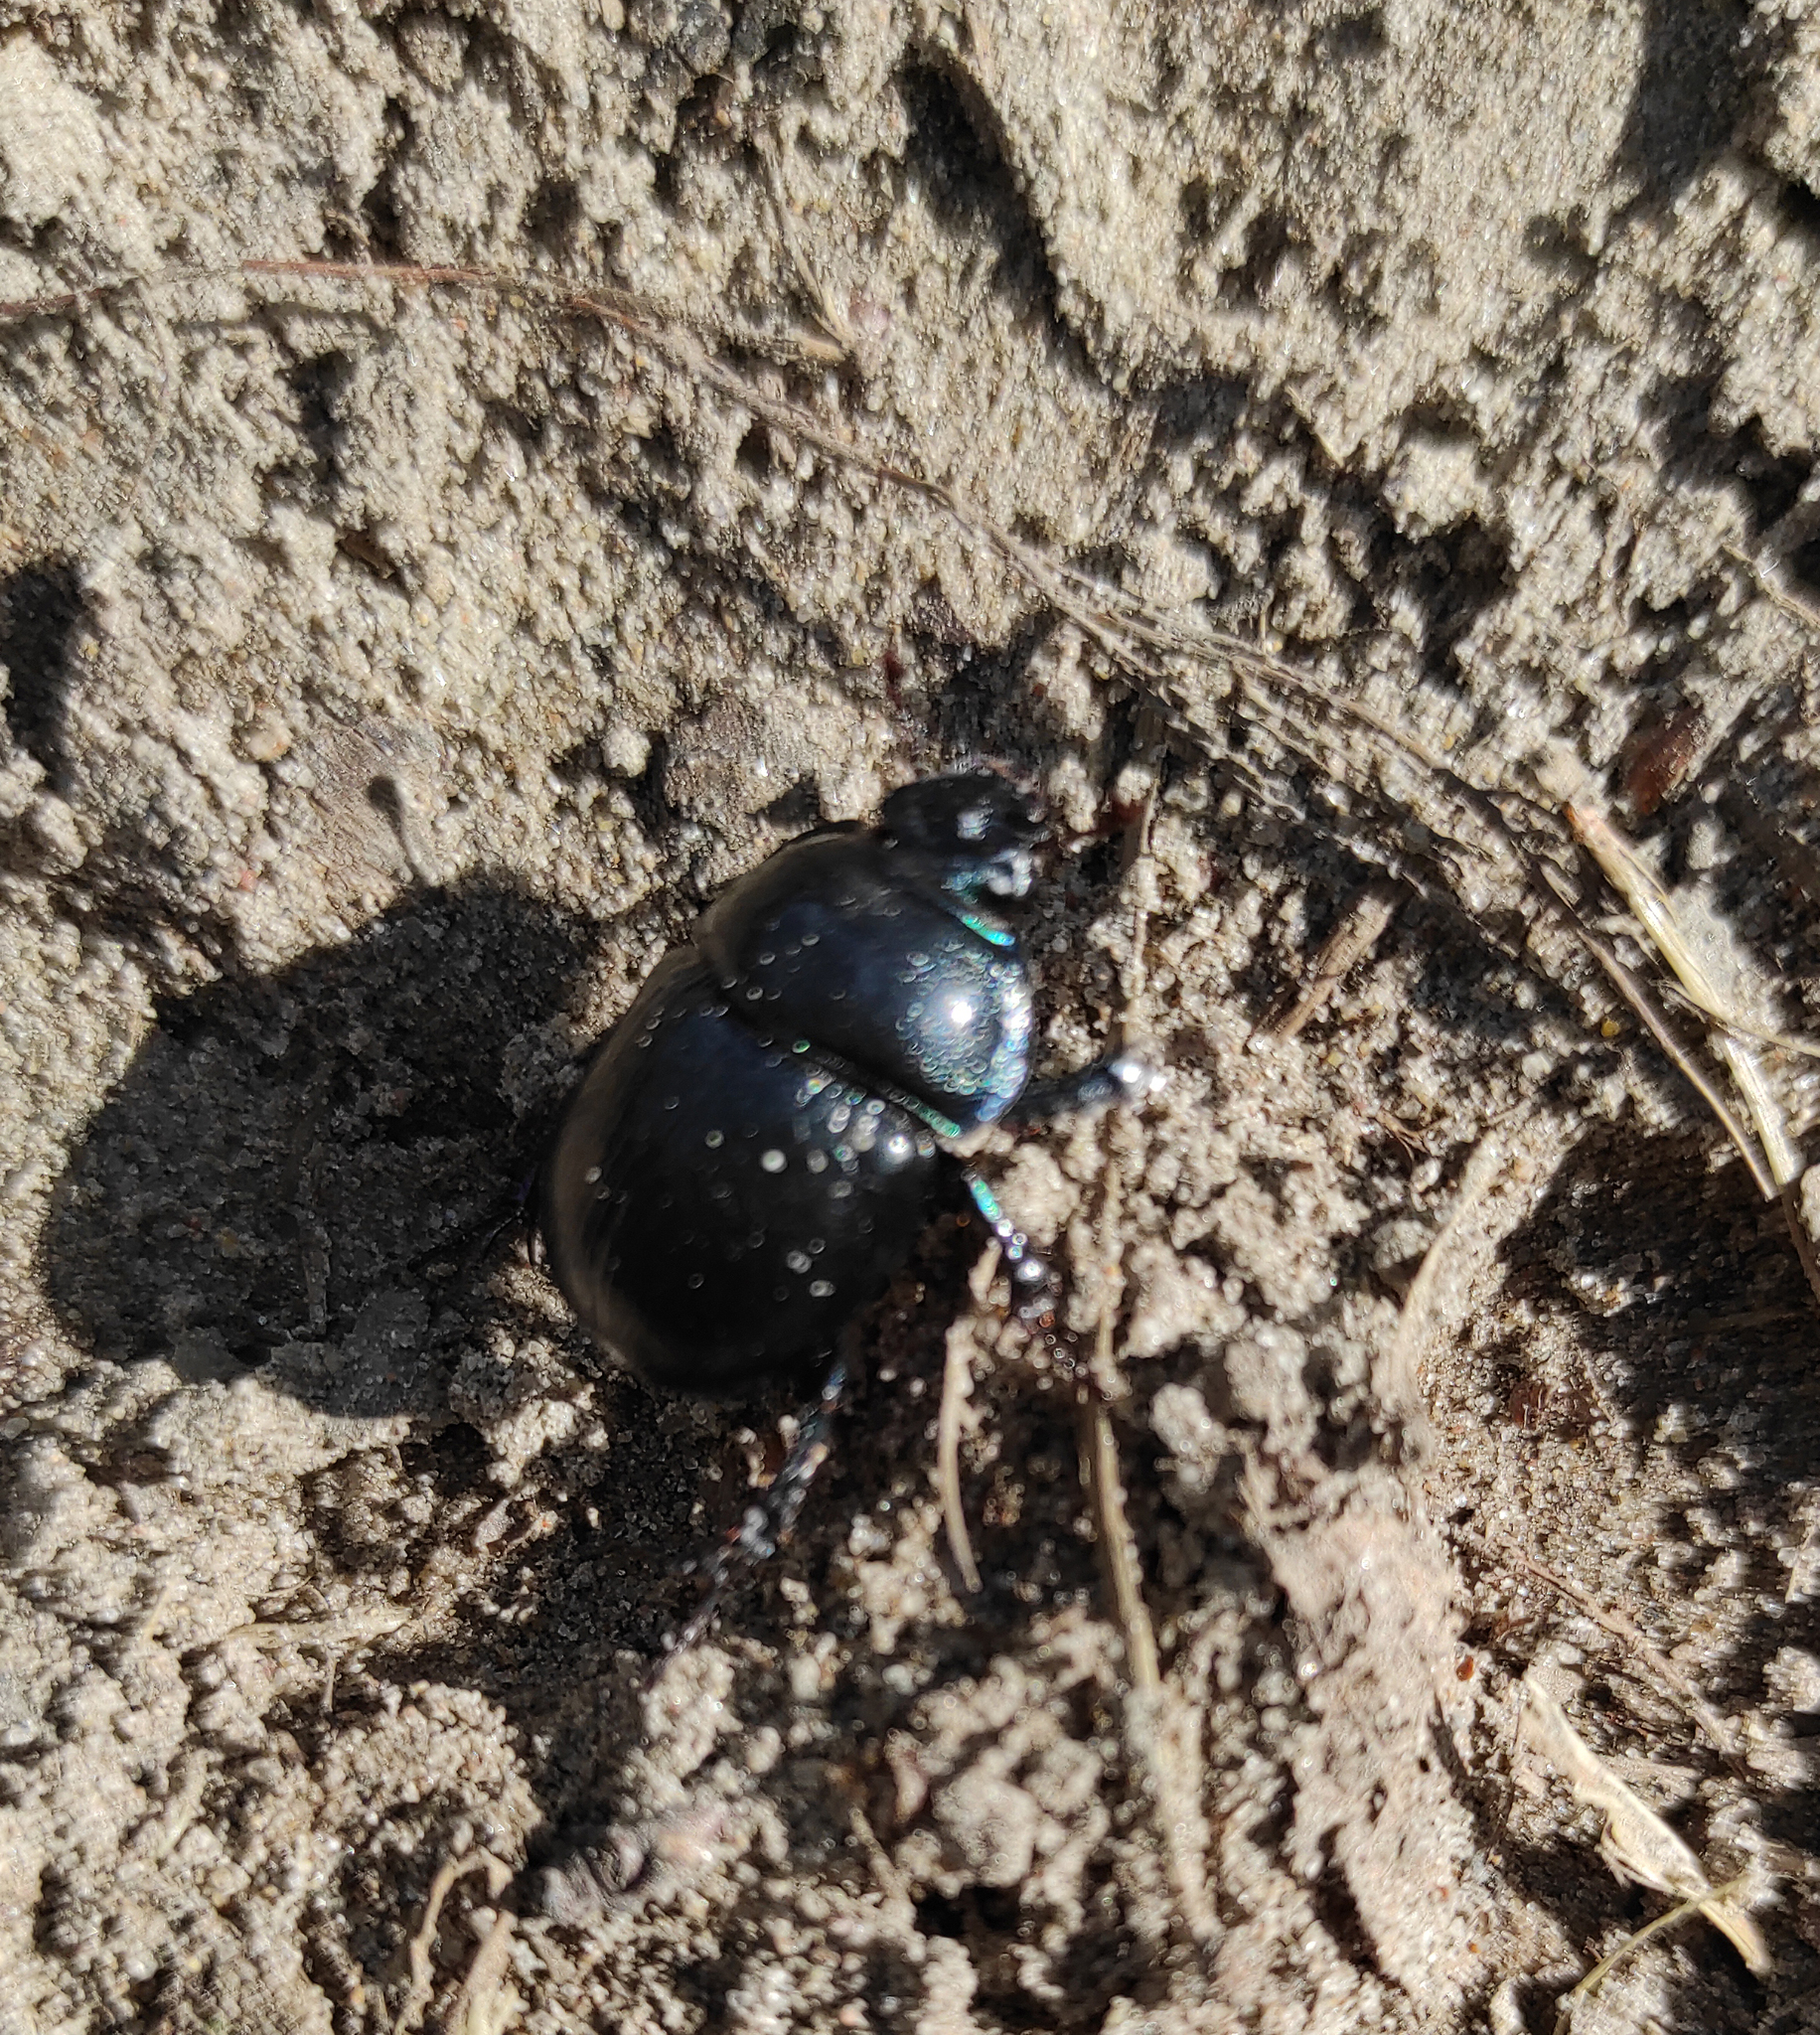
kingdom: Animalia
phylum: Arthropoda
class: Insecta
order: Coleoptera
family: Geotrupidae
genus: Anoplotrupes
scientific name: Anoplotrupes stercorosus
